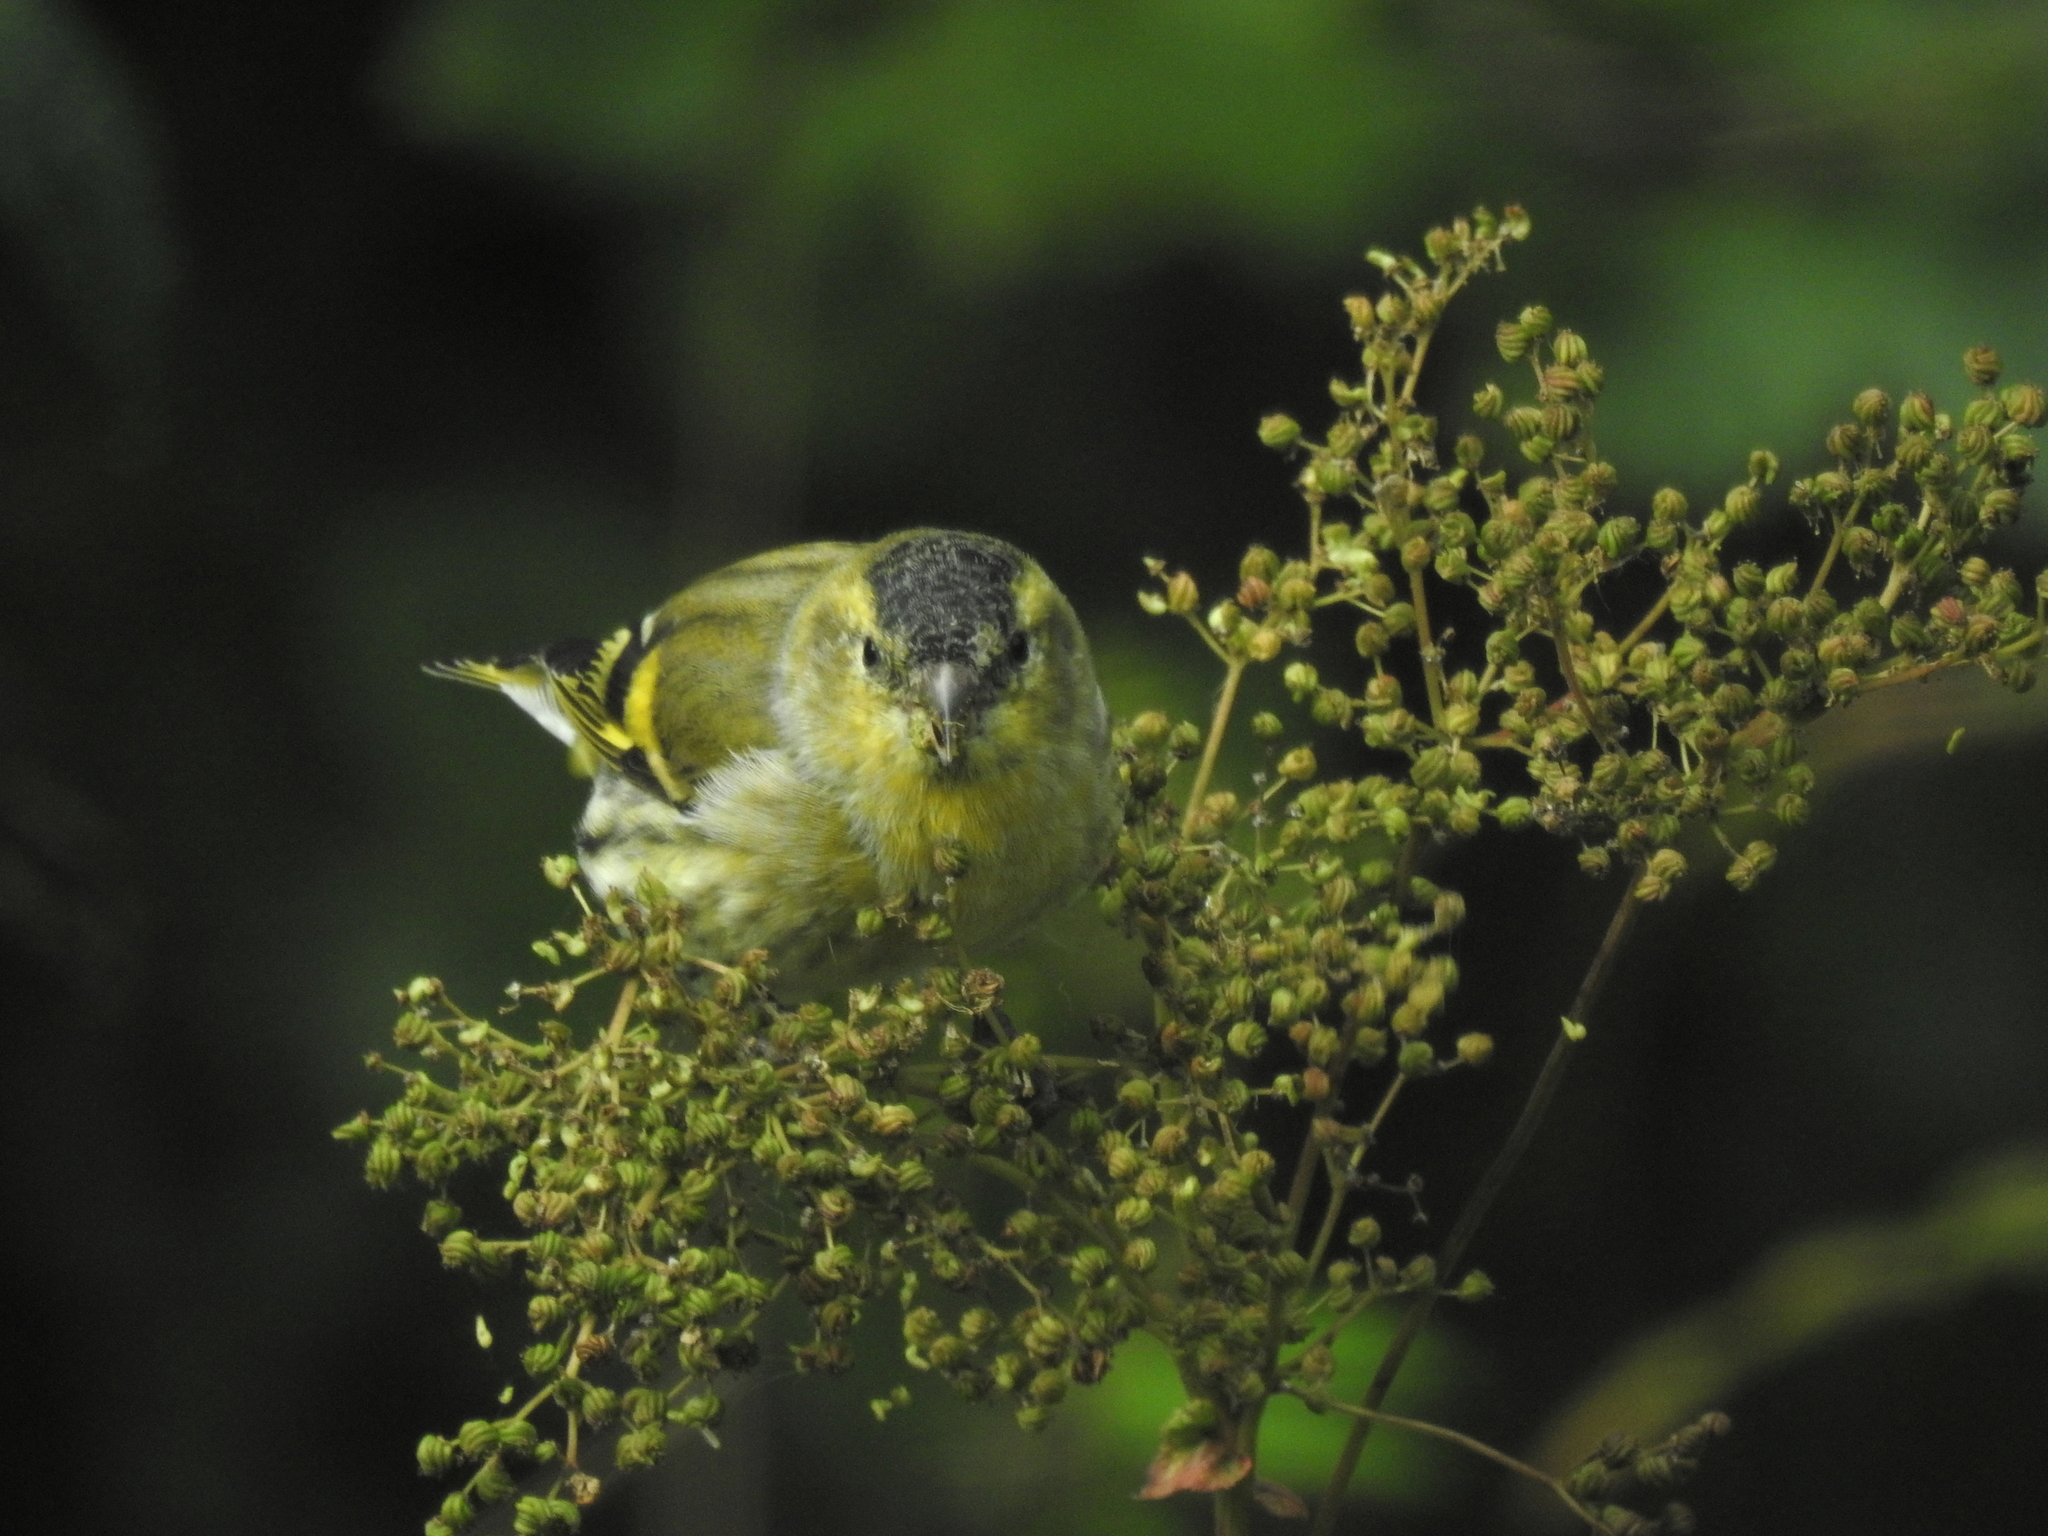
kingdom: Animalia
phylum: Chordata
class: Aves
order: Passeriformes
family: Fringillidae
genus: Spinus
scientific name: Spinus spinus
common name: Eurasian siskin
